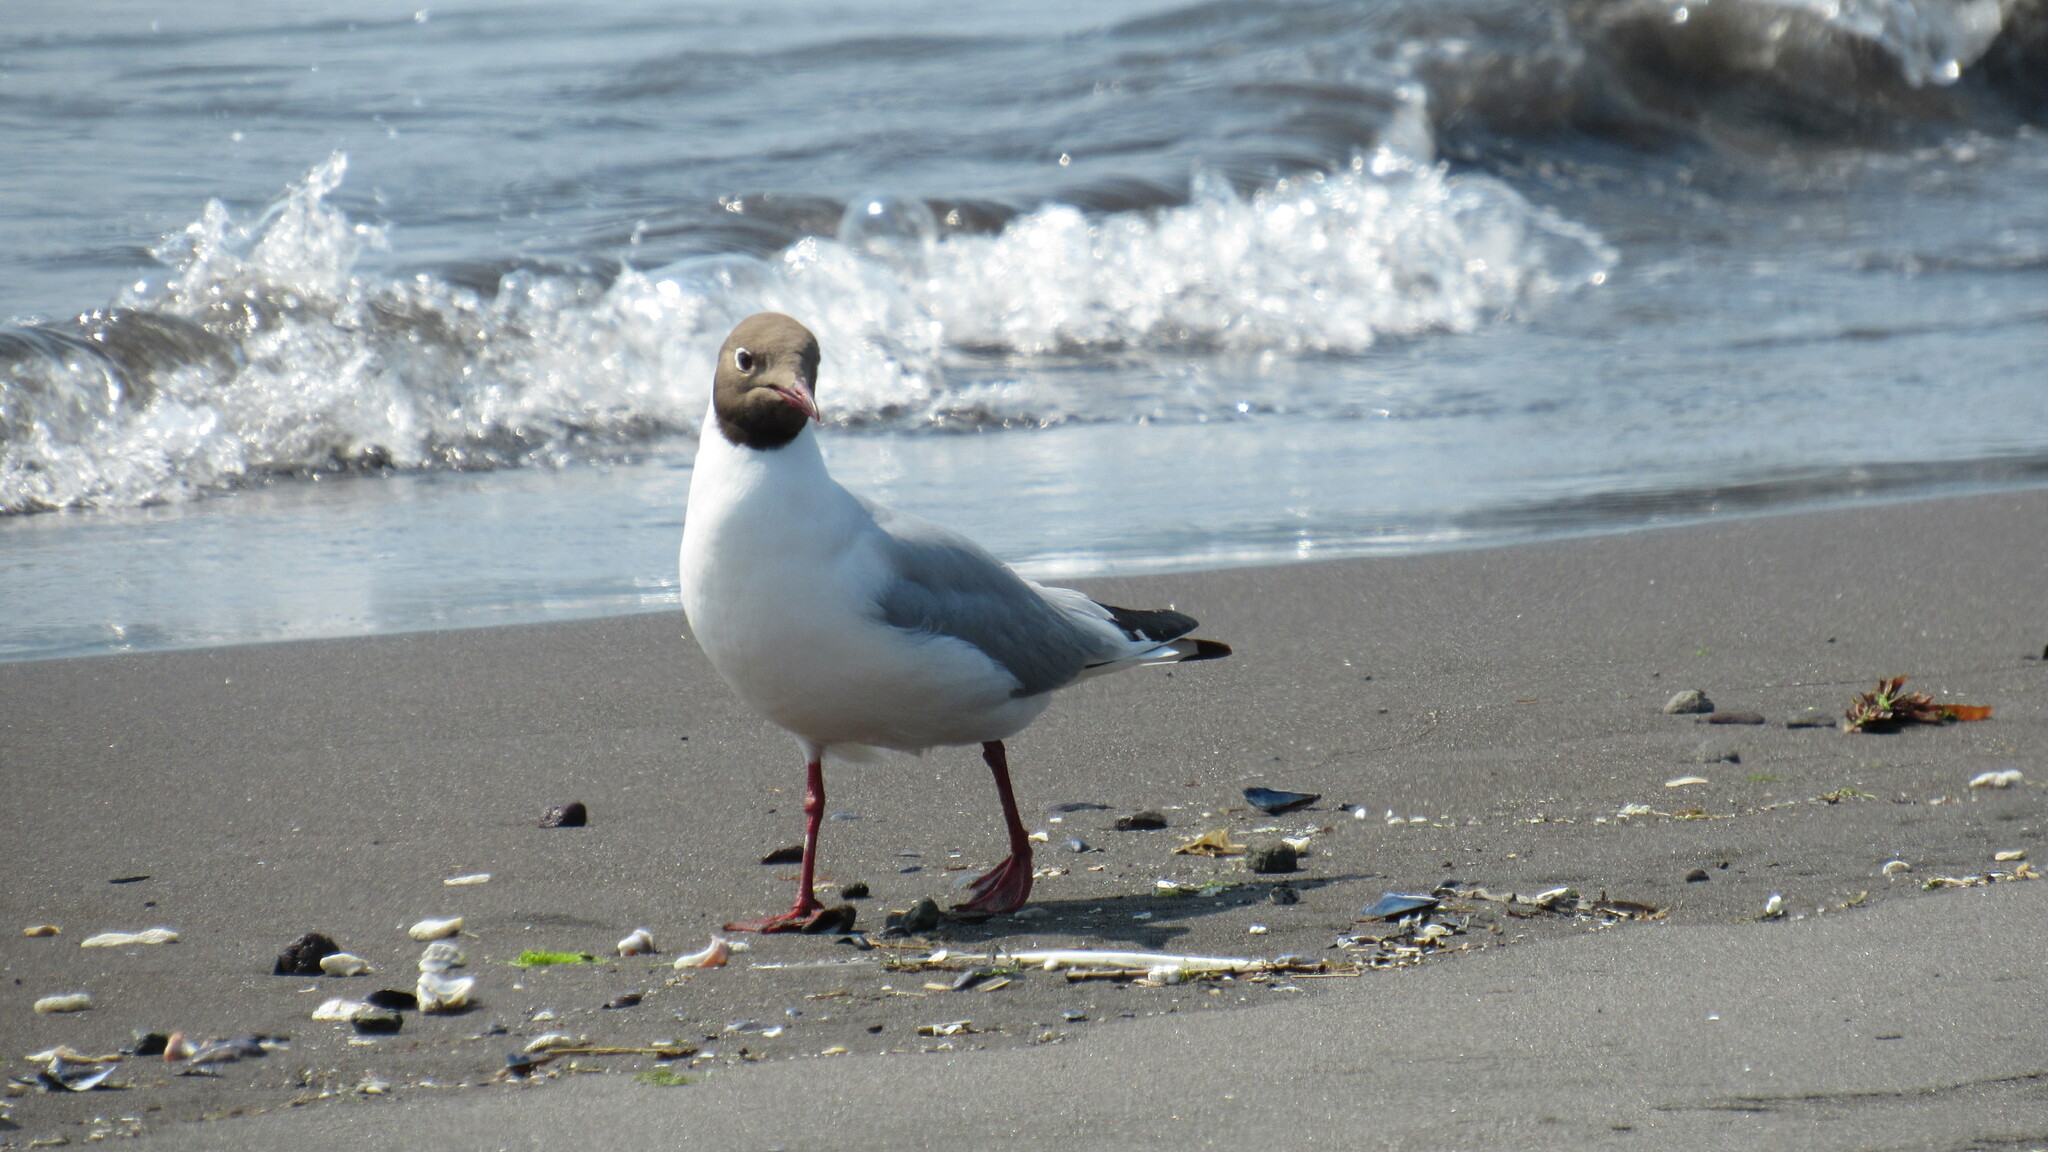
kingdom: Animalia
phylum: Chordata
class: Aves
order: Charadriiformes
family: Laridae
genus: Chroicocephalus
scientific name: Chroicocephalus ridibundus
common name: Black-headed gull
